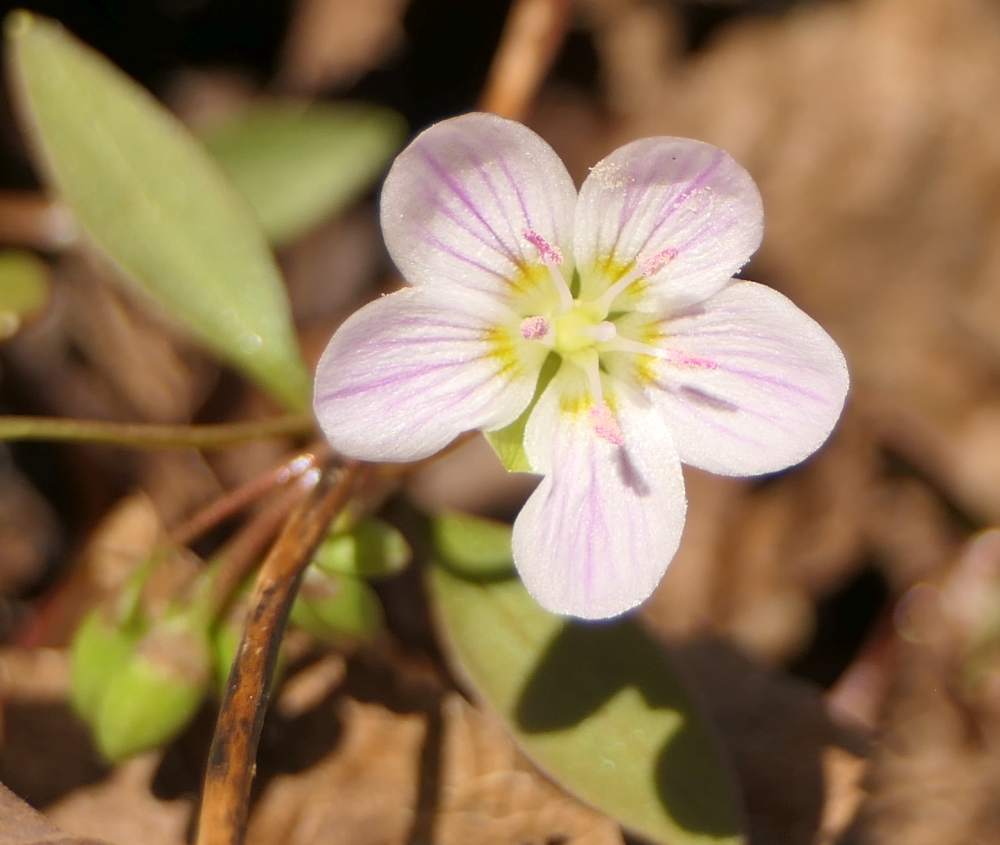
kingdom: Plantae
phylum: Tracheophyta
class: Magnoliopsida
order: Caryophyllales
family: Montiaceae
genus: Claytonia
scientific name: Claytonia caroliniana
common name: Carolina spring beauty
